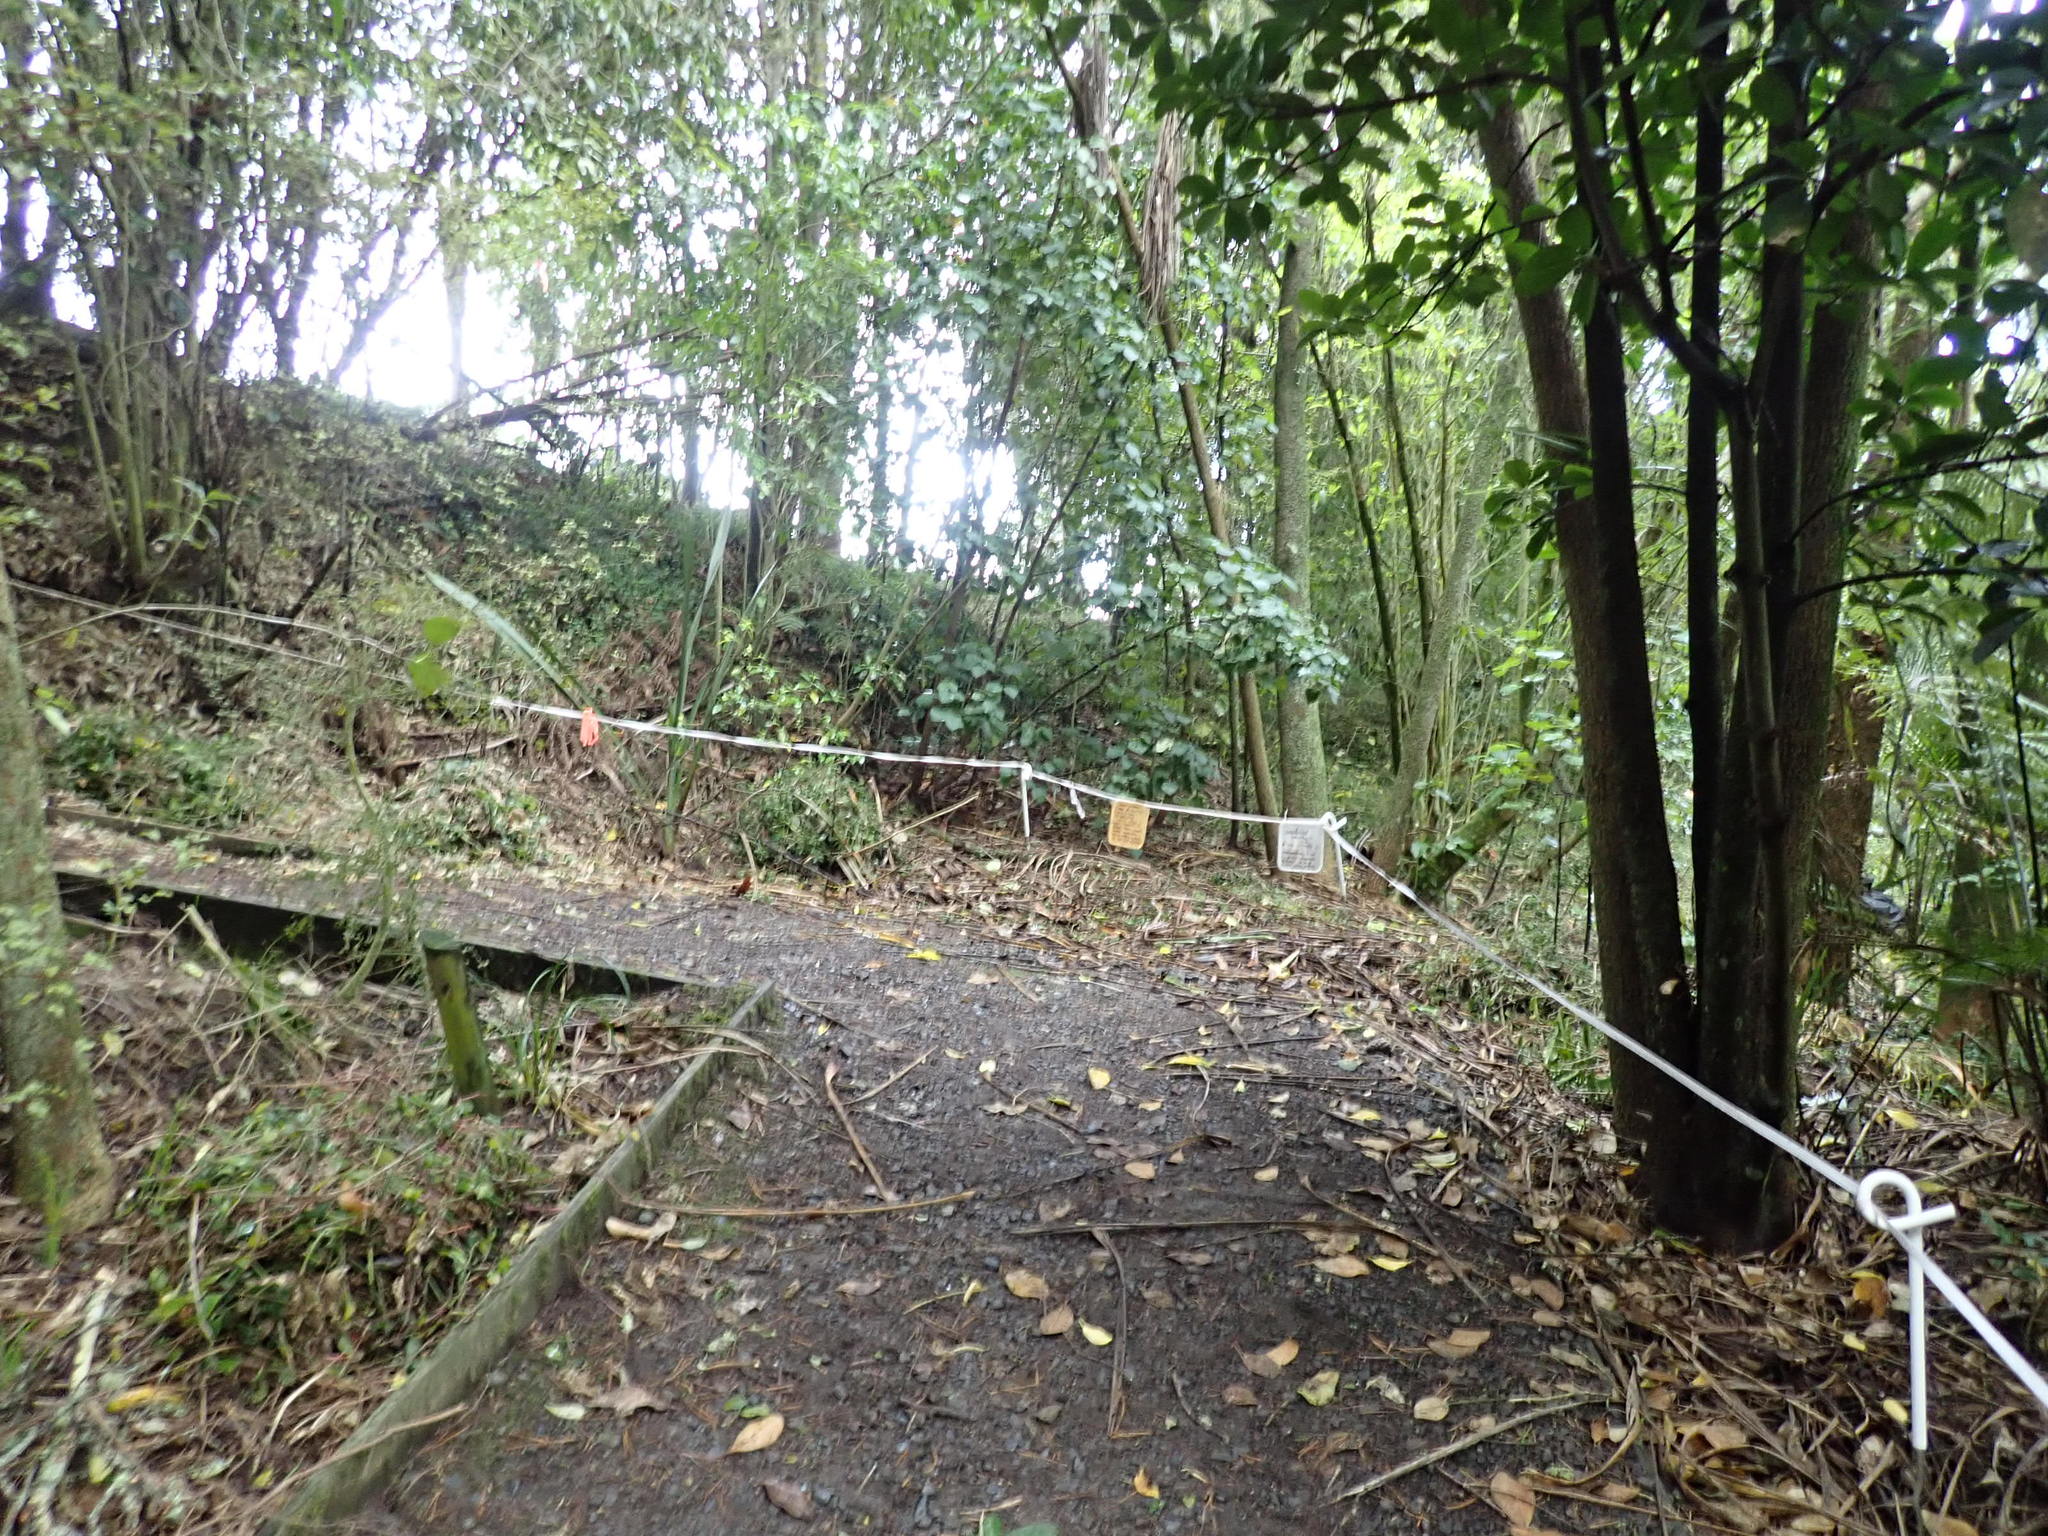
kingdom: Plantae
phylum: Tracheophyta
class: Magnoliopsida
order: Piperales
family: Piperaceae
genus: Macropiper
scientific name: Macropiper excelsum
